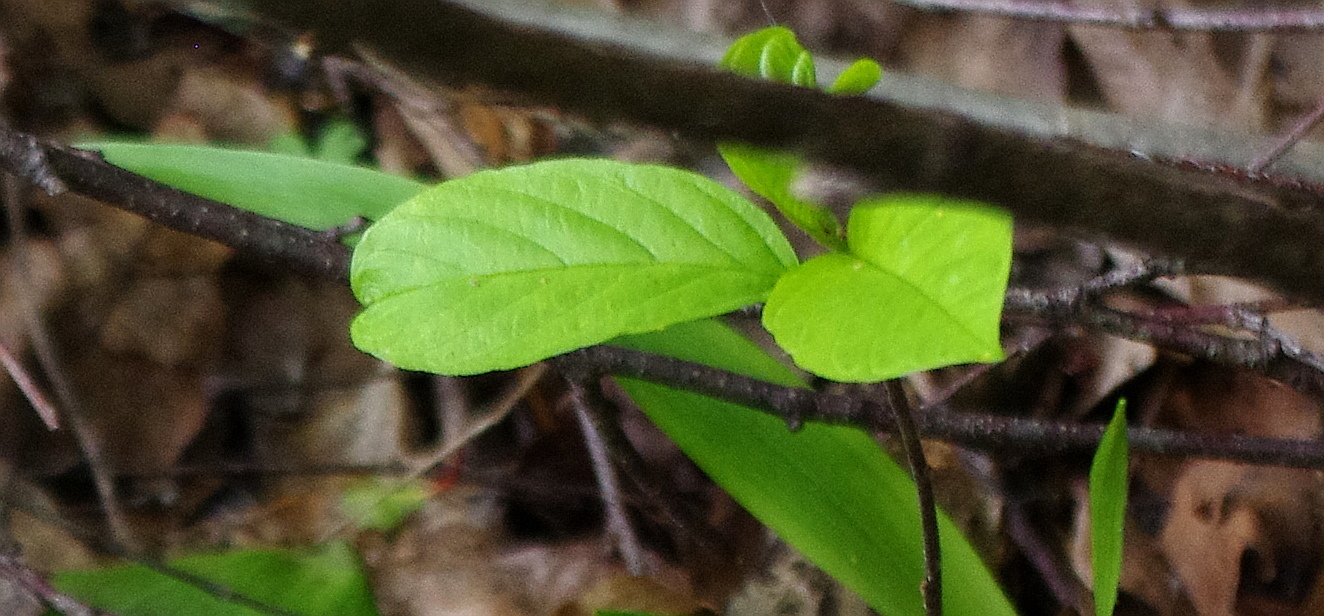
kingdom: Plantae
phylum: Tracheophyta
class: Magnoliopsida
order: Rosales
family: Rhamnaceae
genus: Frangula
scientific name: Frangula alnus
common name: Alder buckthorn
